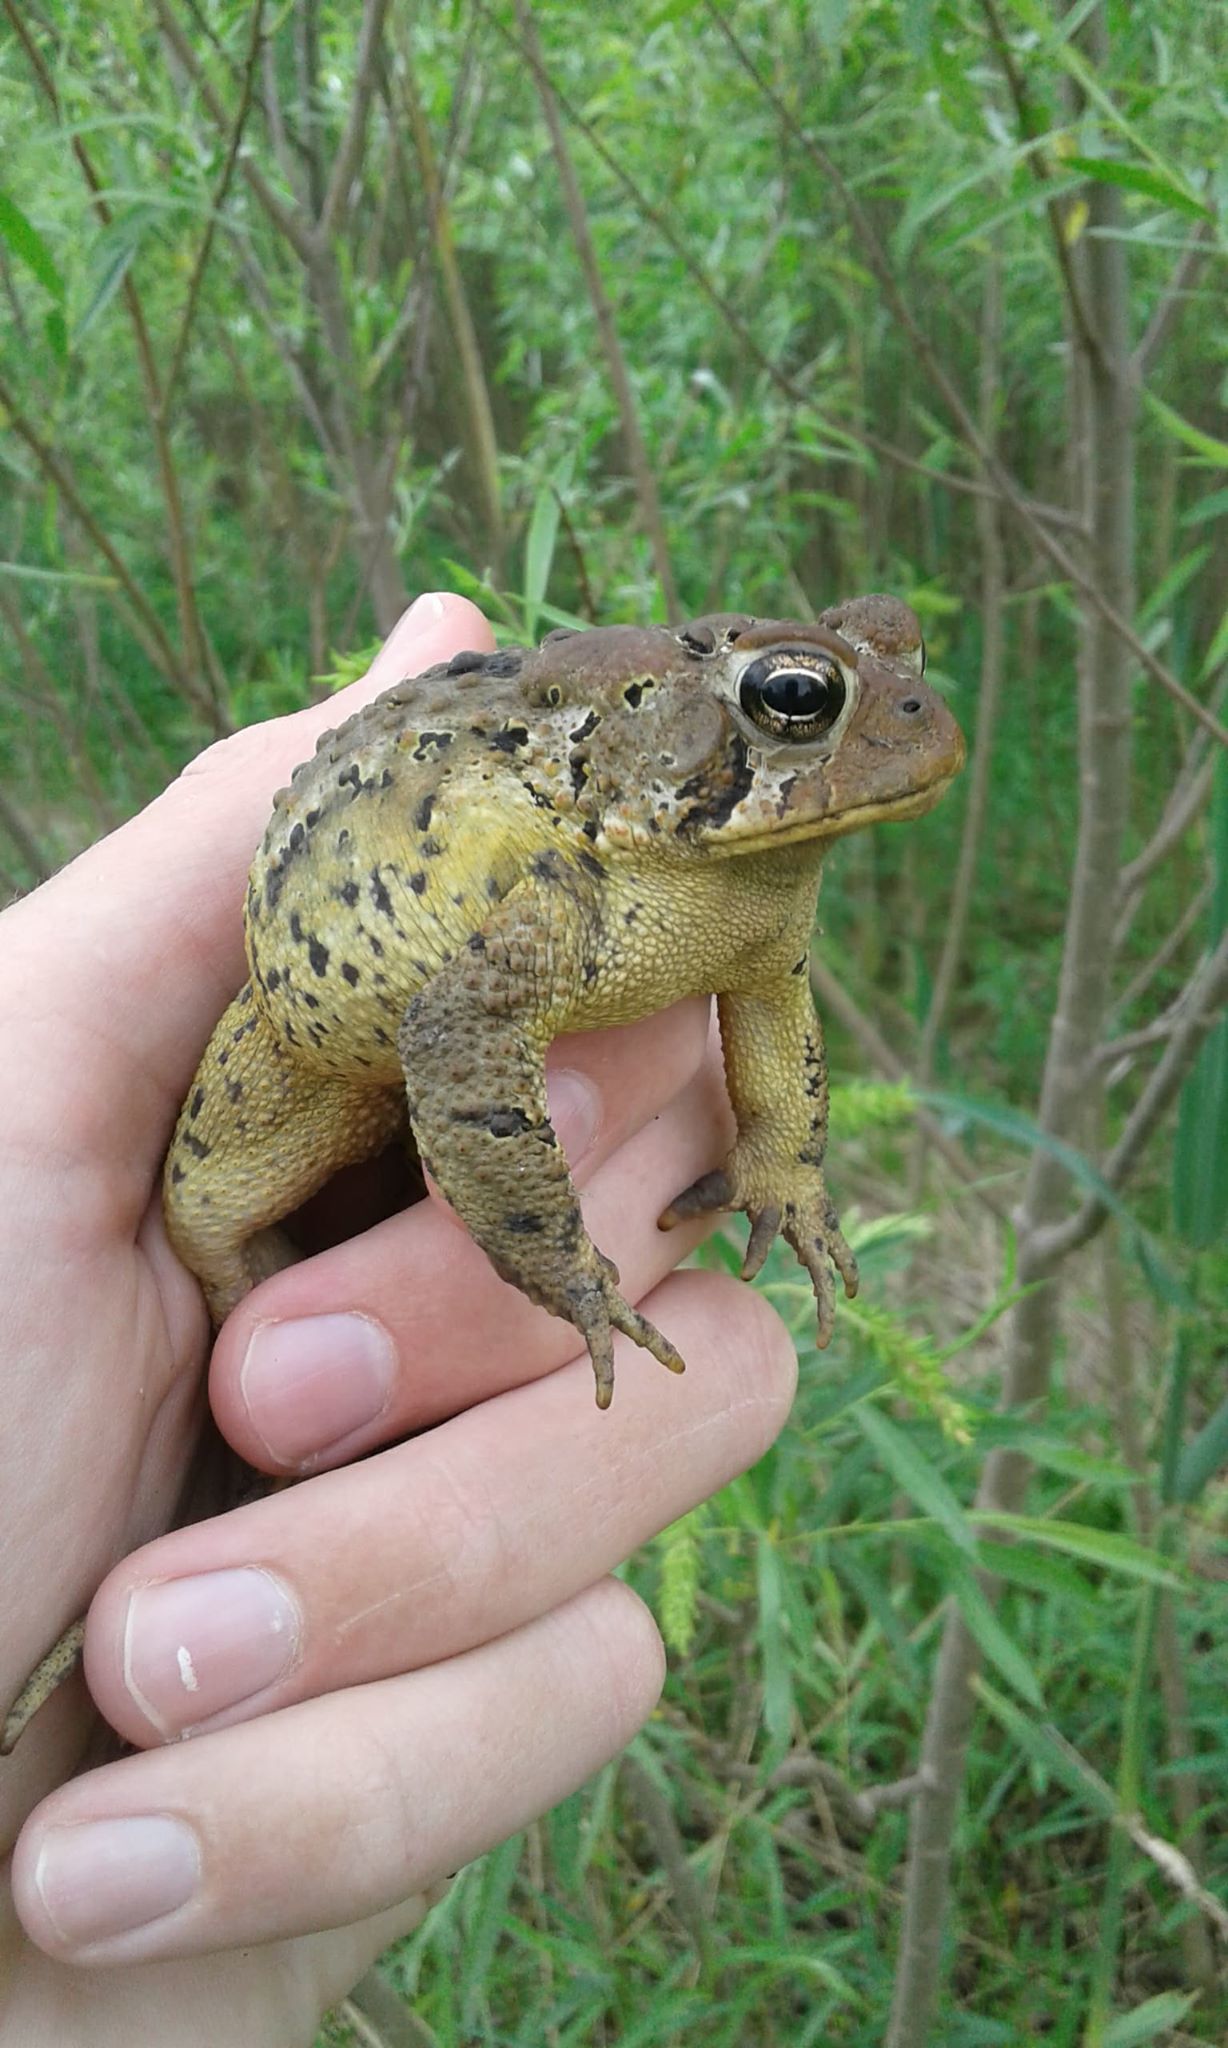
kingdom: Animalia
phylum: Chordata
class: Amphibia
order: Anura
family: Bufonidae
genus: Anaxyrus
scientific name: Anaxyrus americanus
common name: American toad
